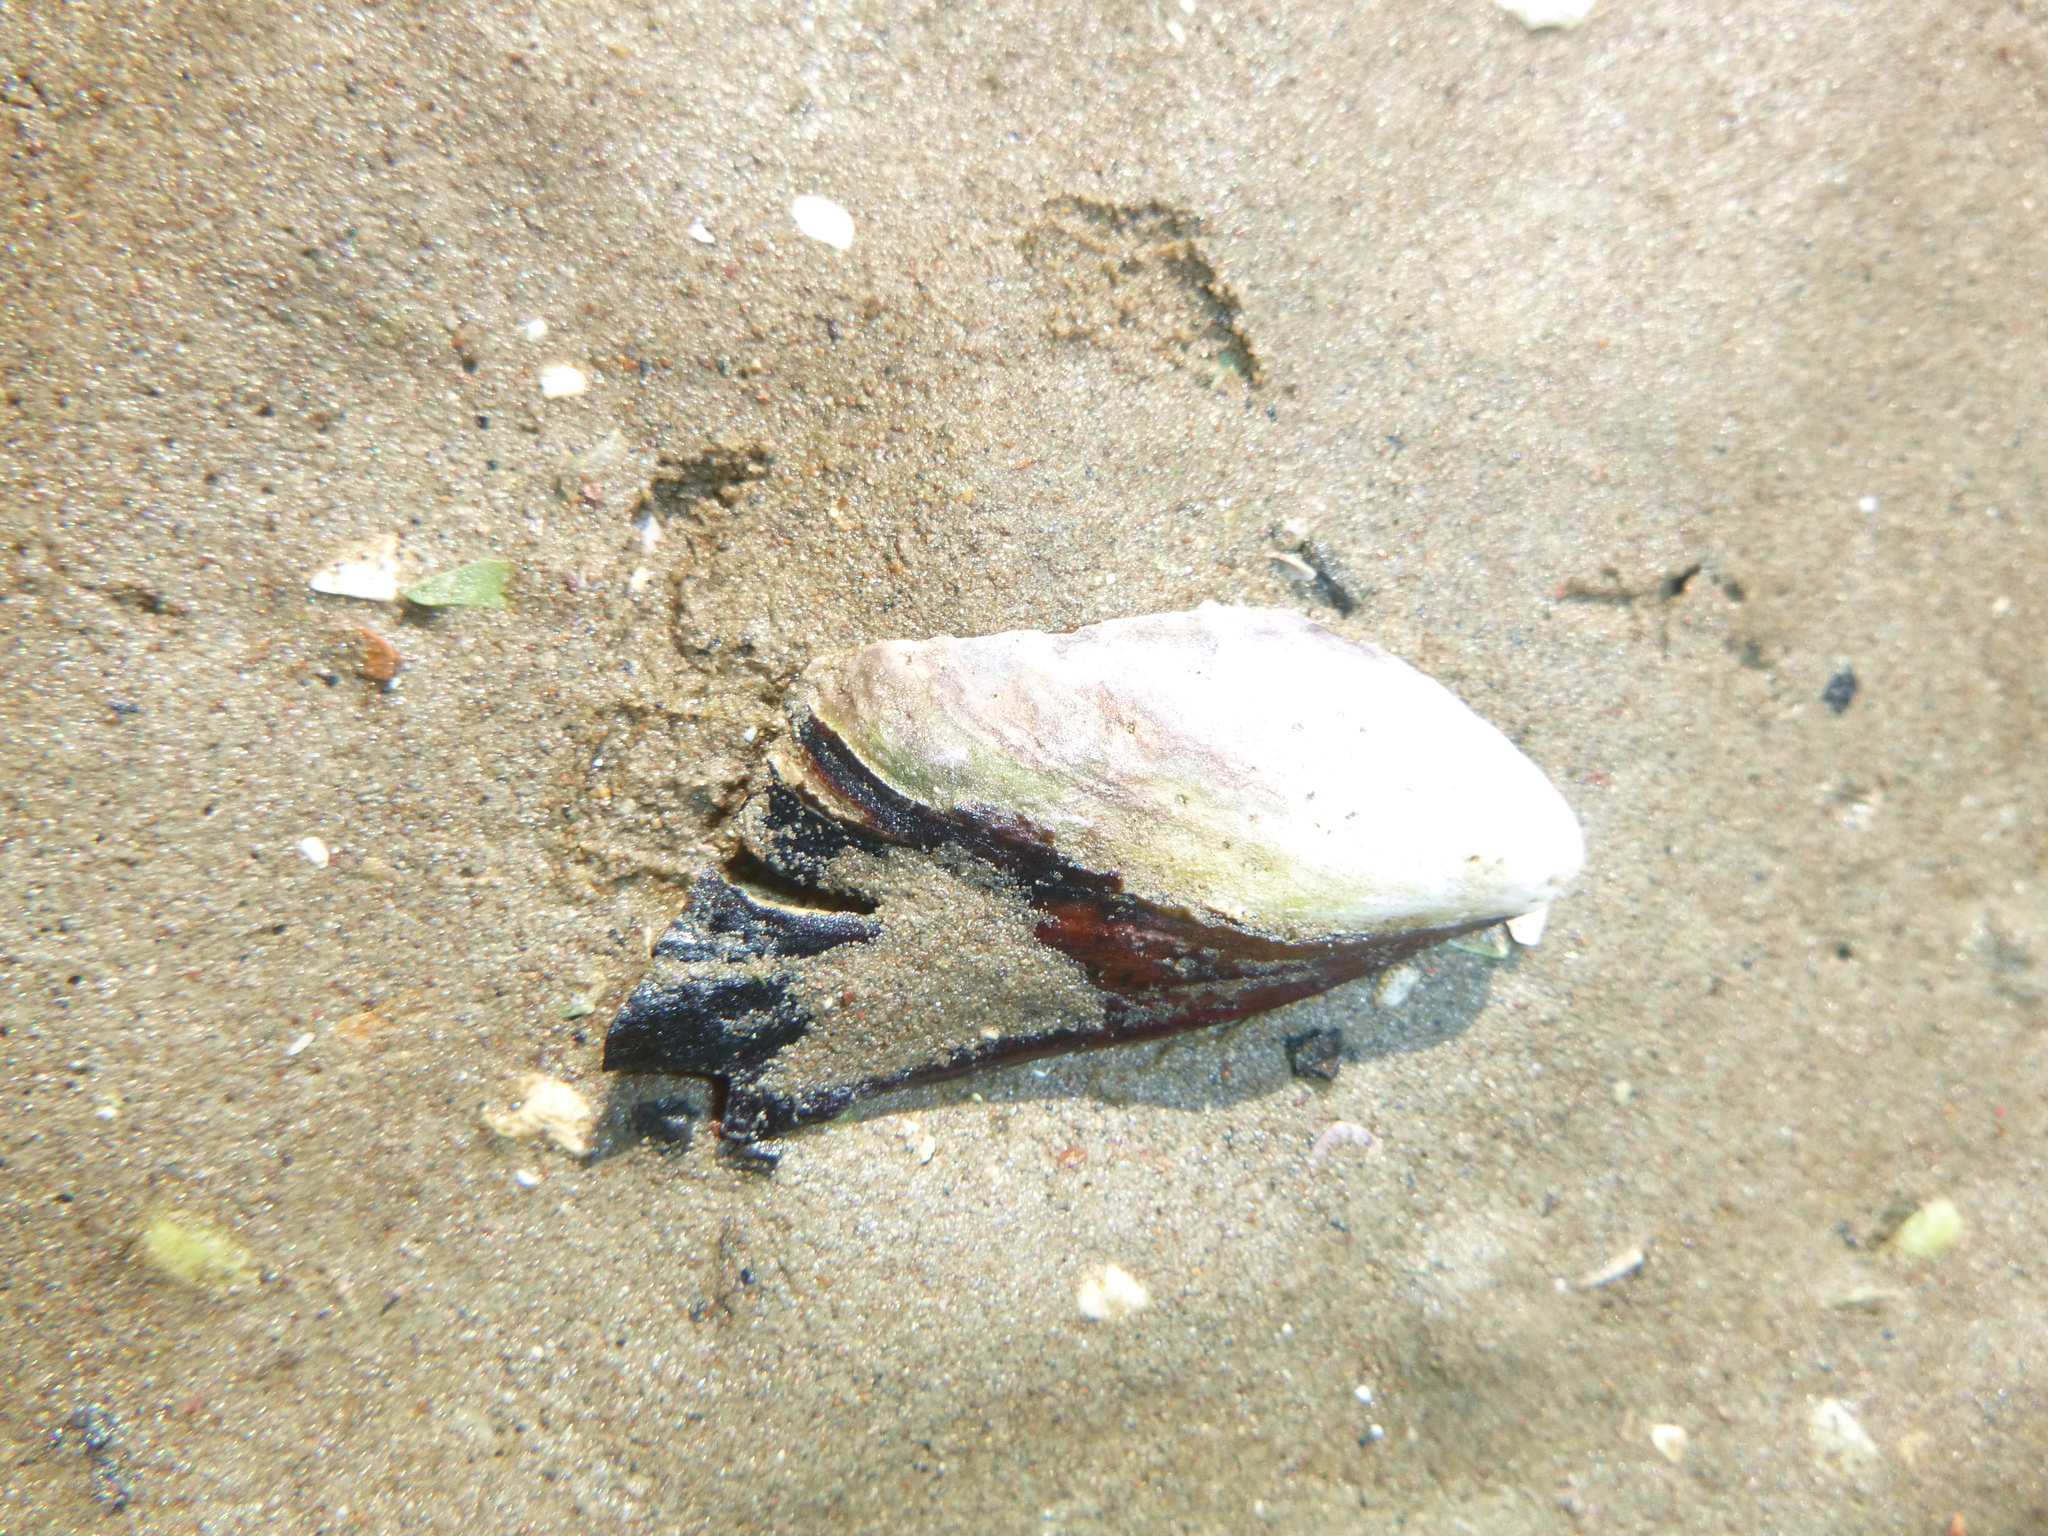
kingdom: Animalia
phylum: Mollusca
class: Bivalvia
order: Mytilida
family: Mytilidae
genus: Perna
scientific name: Perna canaliculus
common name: New zealand greenshelltm
